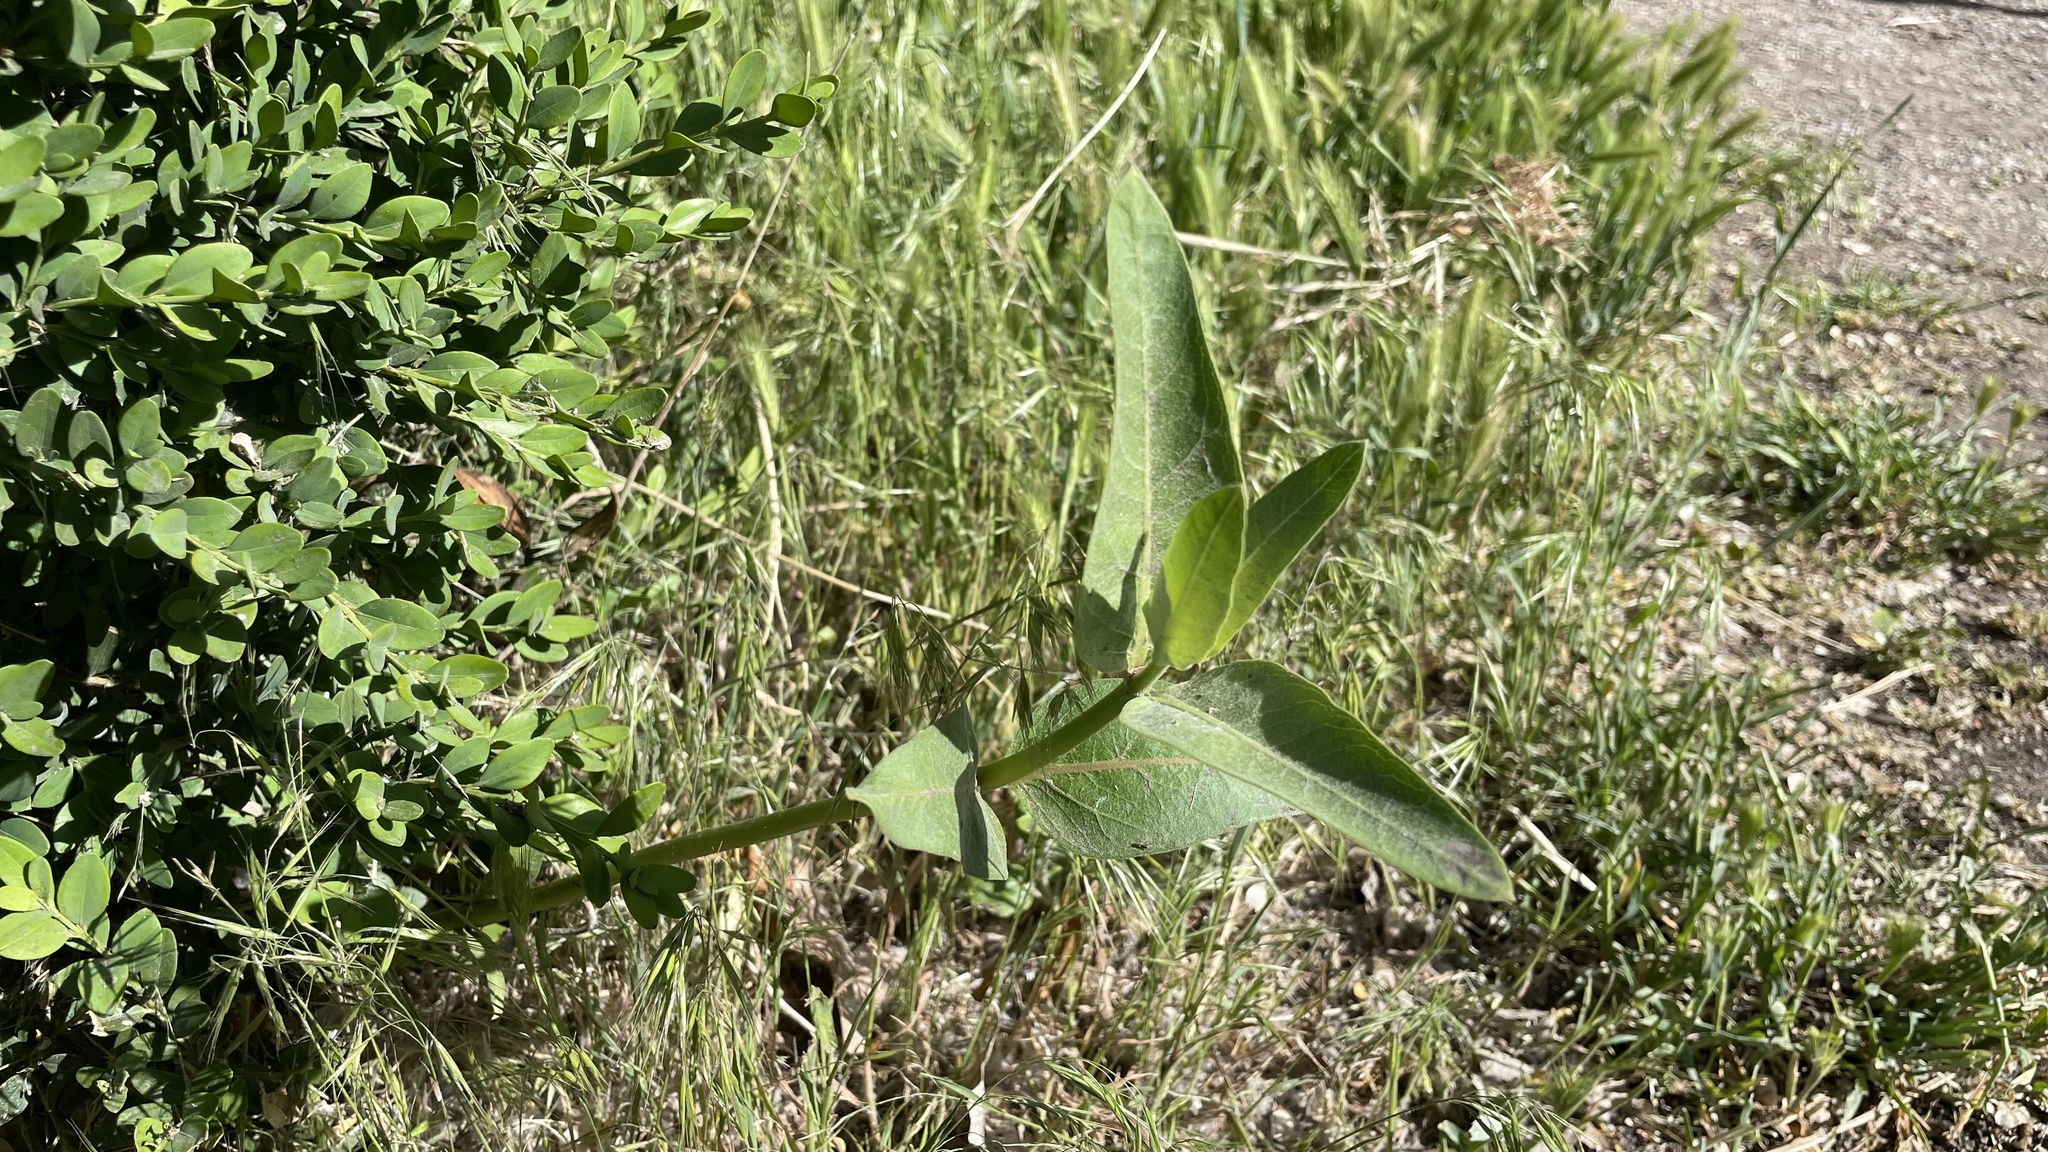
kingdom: Plantae
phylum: Tracheophyta
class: Magnoliopsida
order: Gentianales
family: Apocynaceae
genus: Asclepias
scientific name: Asclepias speciosa
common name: Showy milkweed
